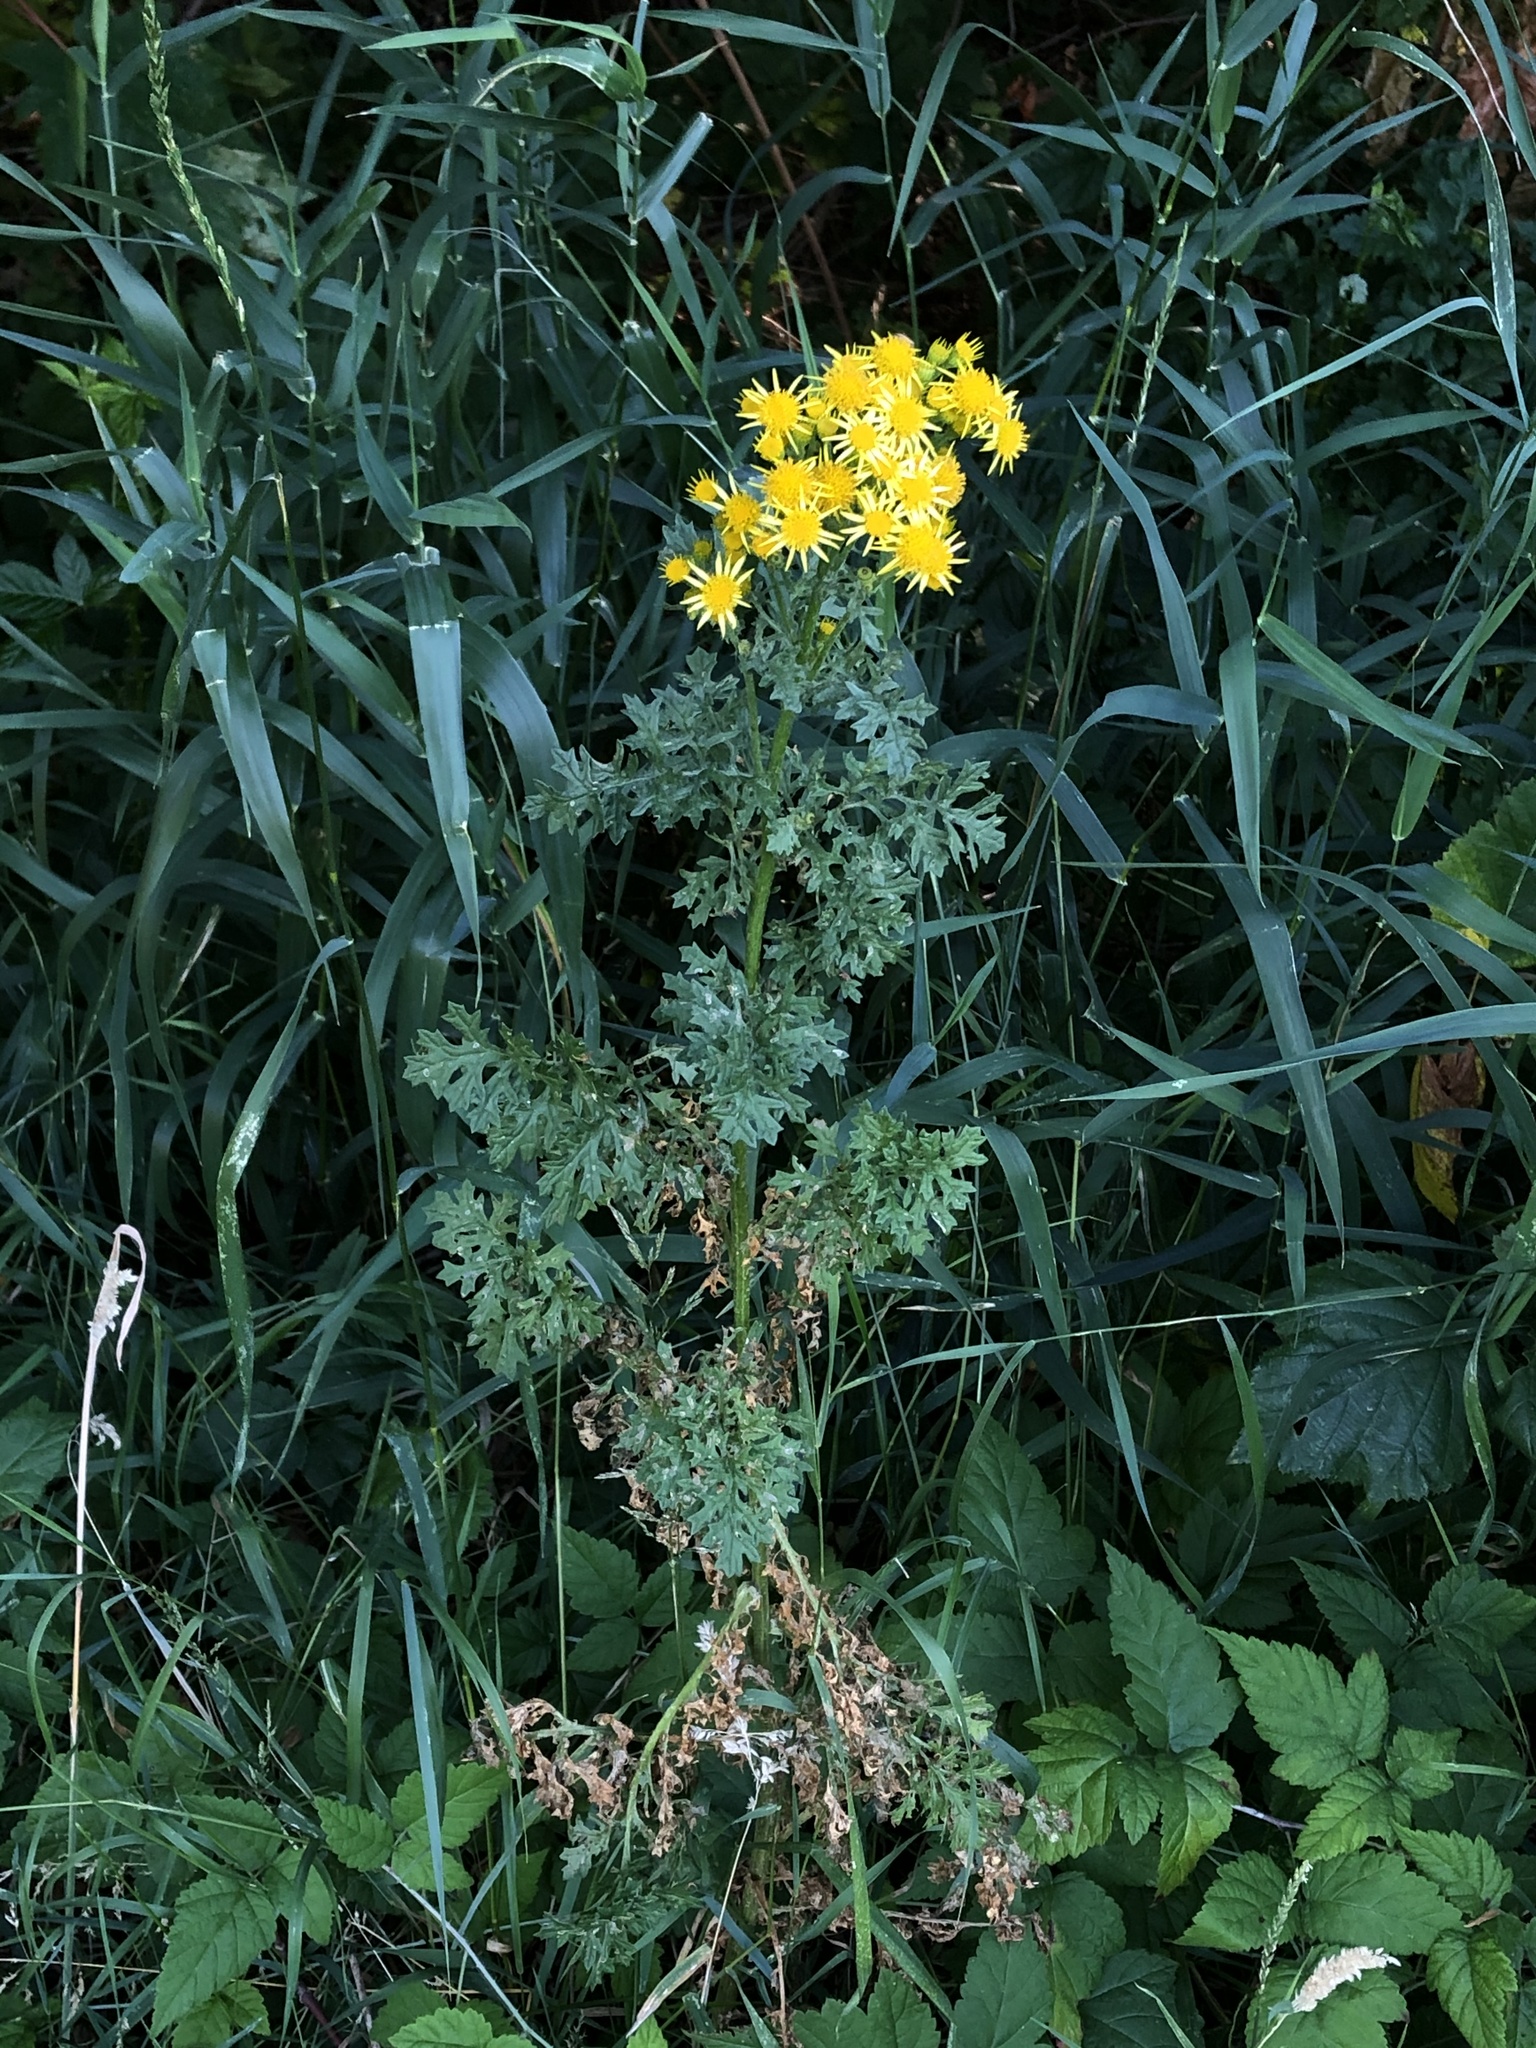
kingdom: Plantae
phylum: Tracheophyta
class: Magnoliopsida
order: Asterales
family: Asteraceae
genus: Jacobaea
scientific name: Jacobaea vulgaris
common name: Stinking willie
